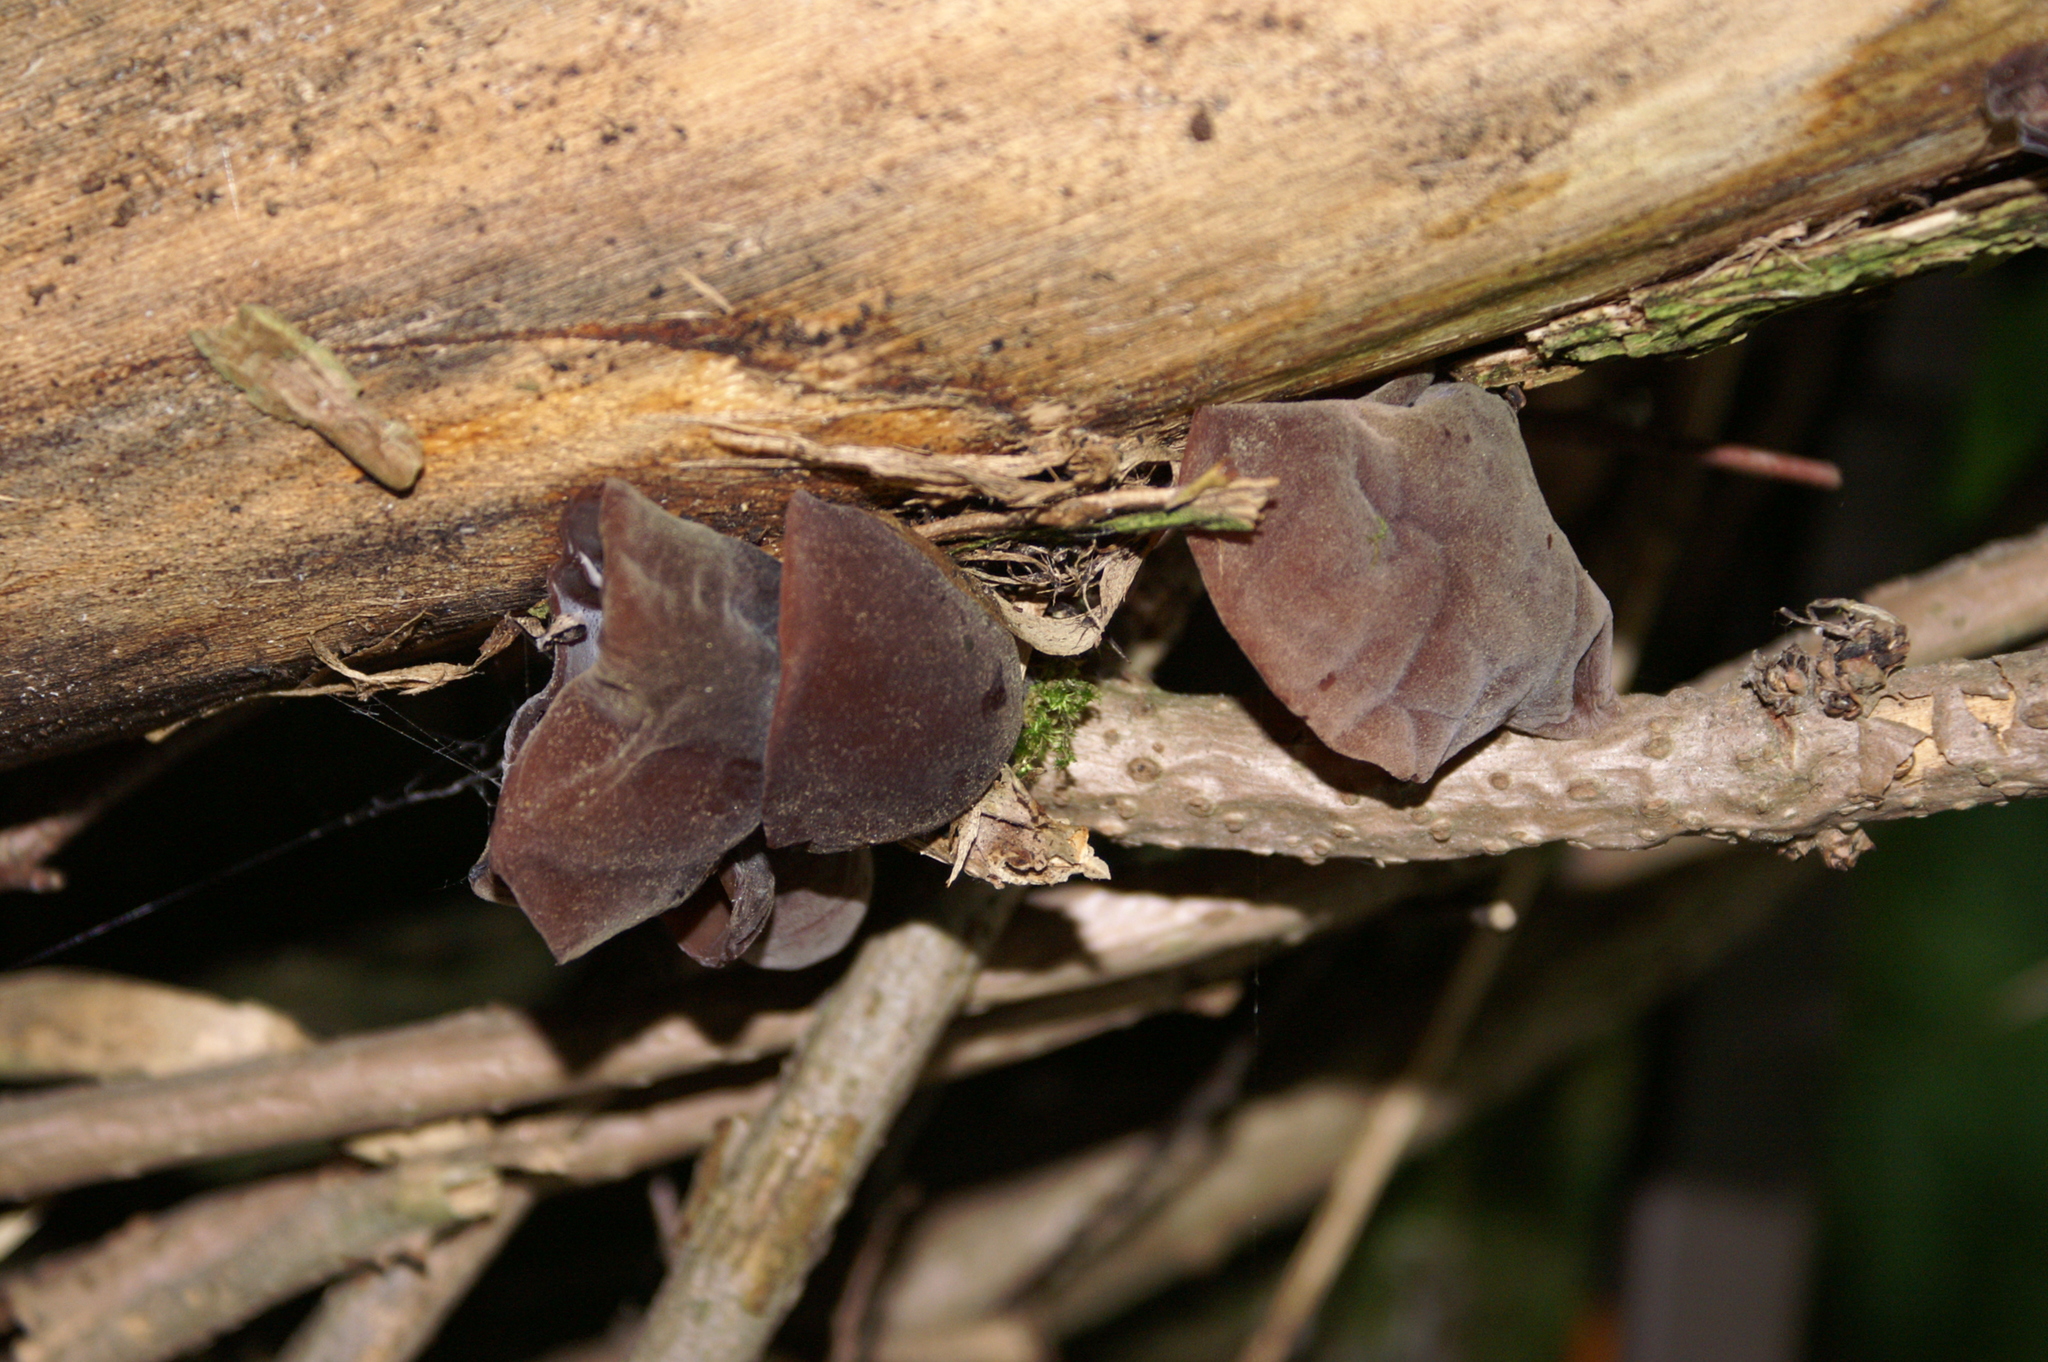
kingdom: Fungi
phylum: Basidiomycota
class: Agaricomycetes
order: Auriculariales
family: Auriculariaceae
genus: Auricularia
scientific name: Auricularia auricula-judae
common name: Jelly ear
